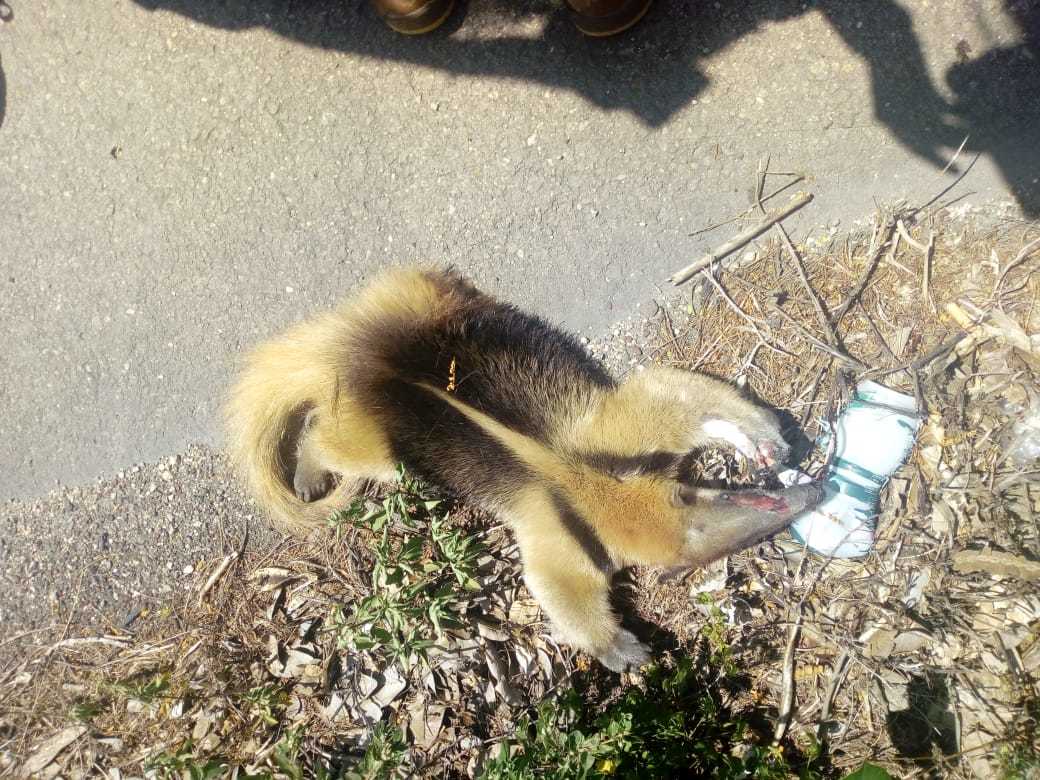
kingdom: Animalia
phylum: Chordata
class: Mammalia
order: Pilosa
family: Myrmecophagidae
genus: Tamandua
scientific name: Tamandua mexicana
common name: Northern tamandua
